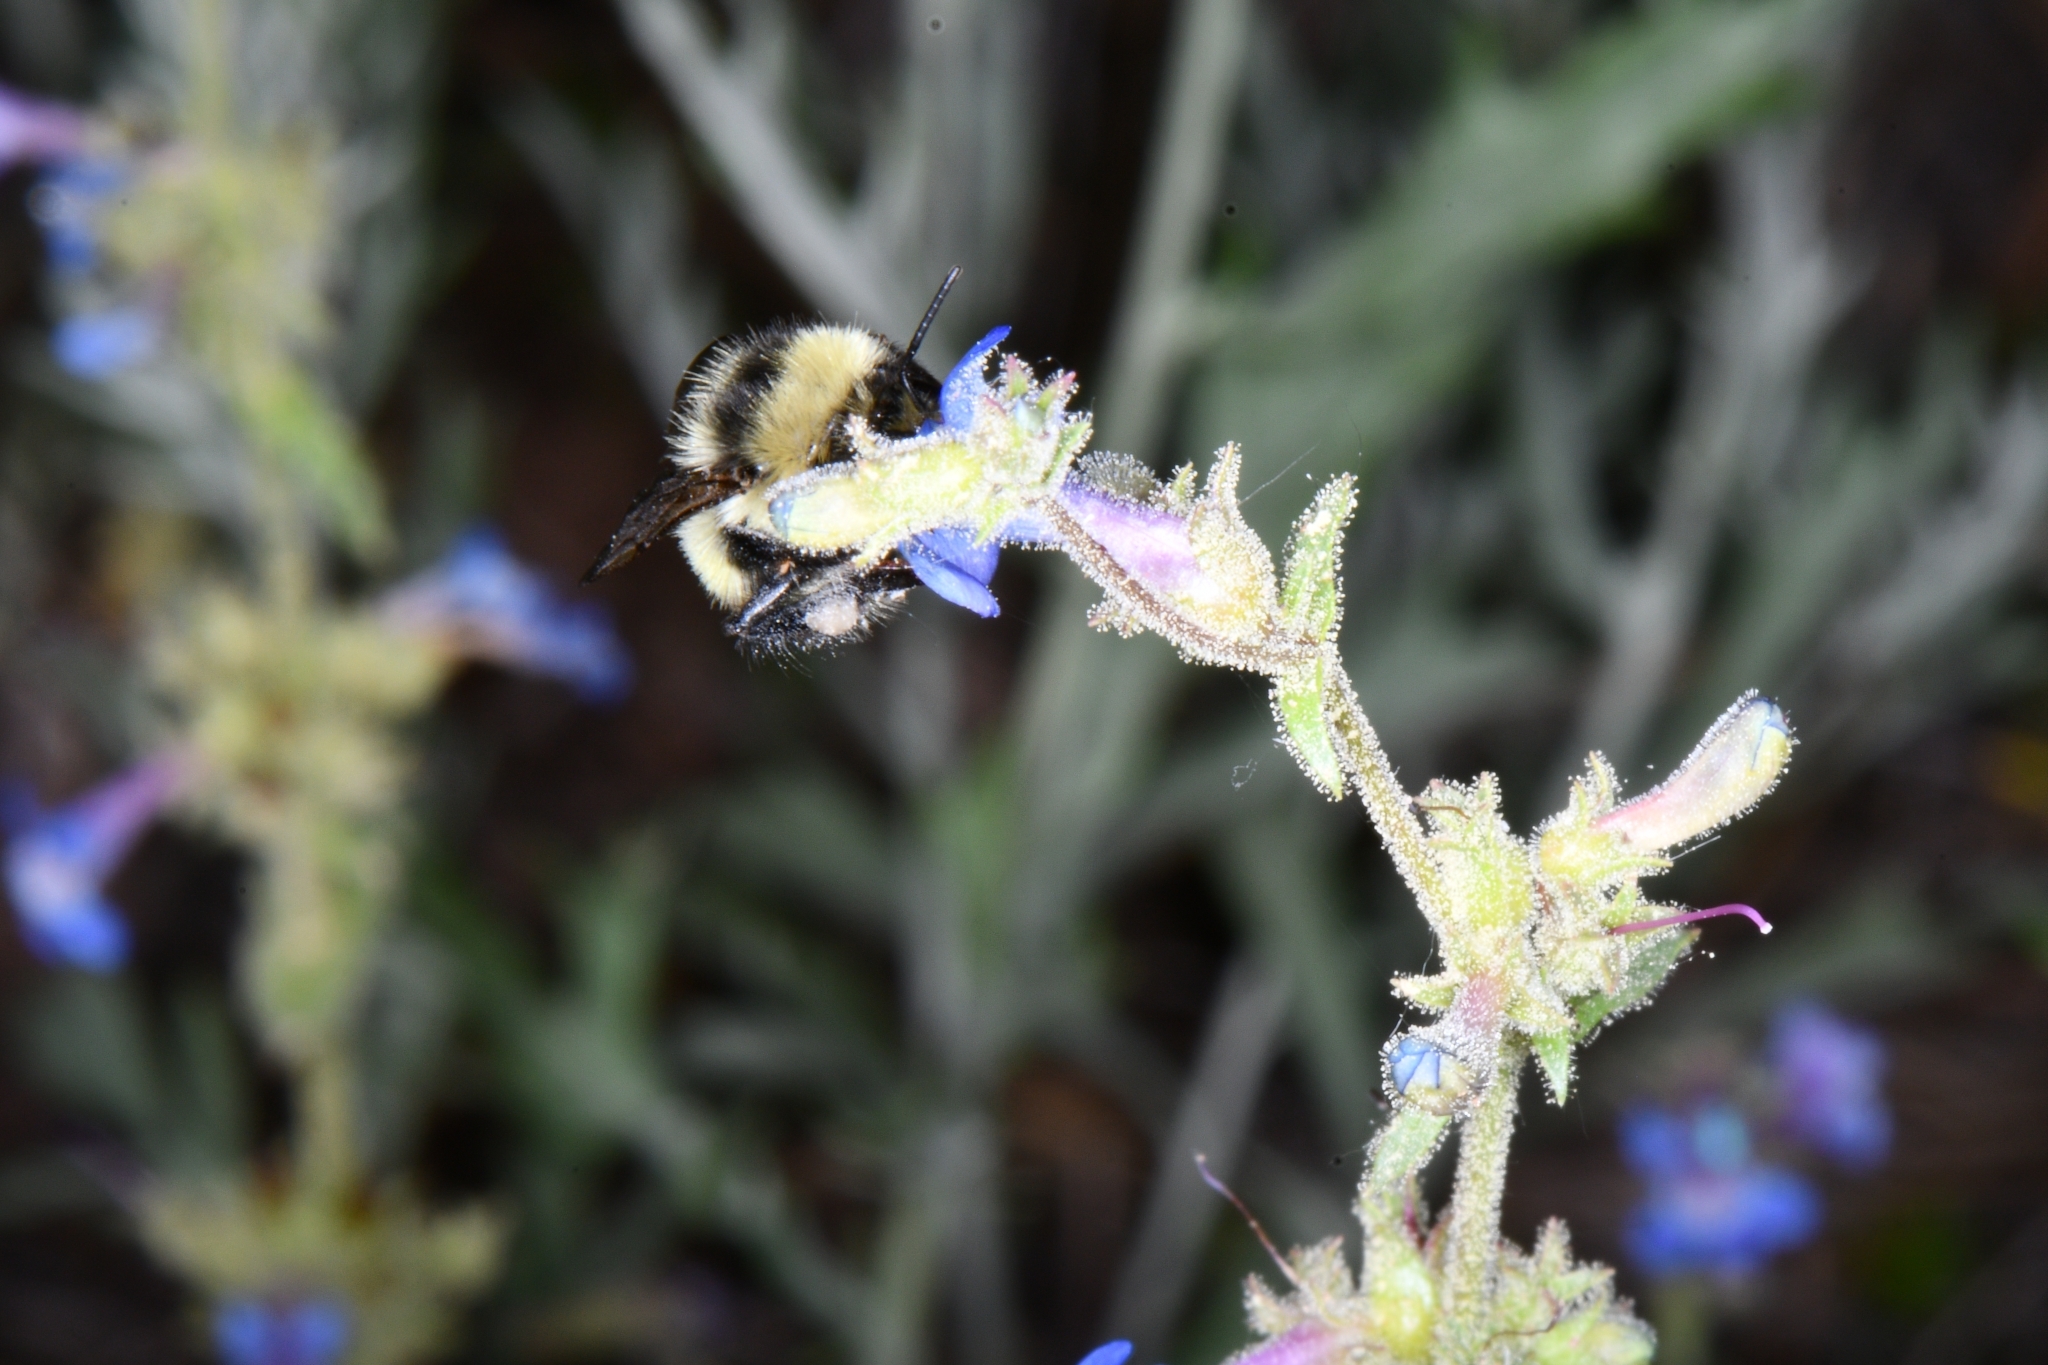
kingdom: Animalia
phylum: Arthropoda
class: Insecta
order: Hymenoptera
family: Apidae
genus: Bombus
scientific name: Bombus centralis
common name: Central bumble bee
